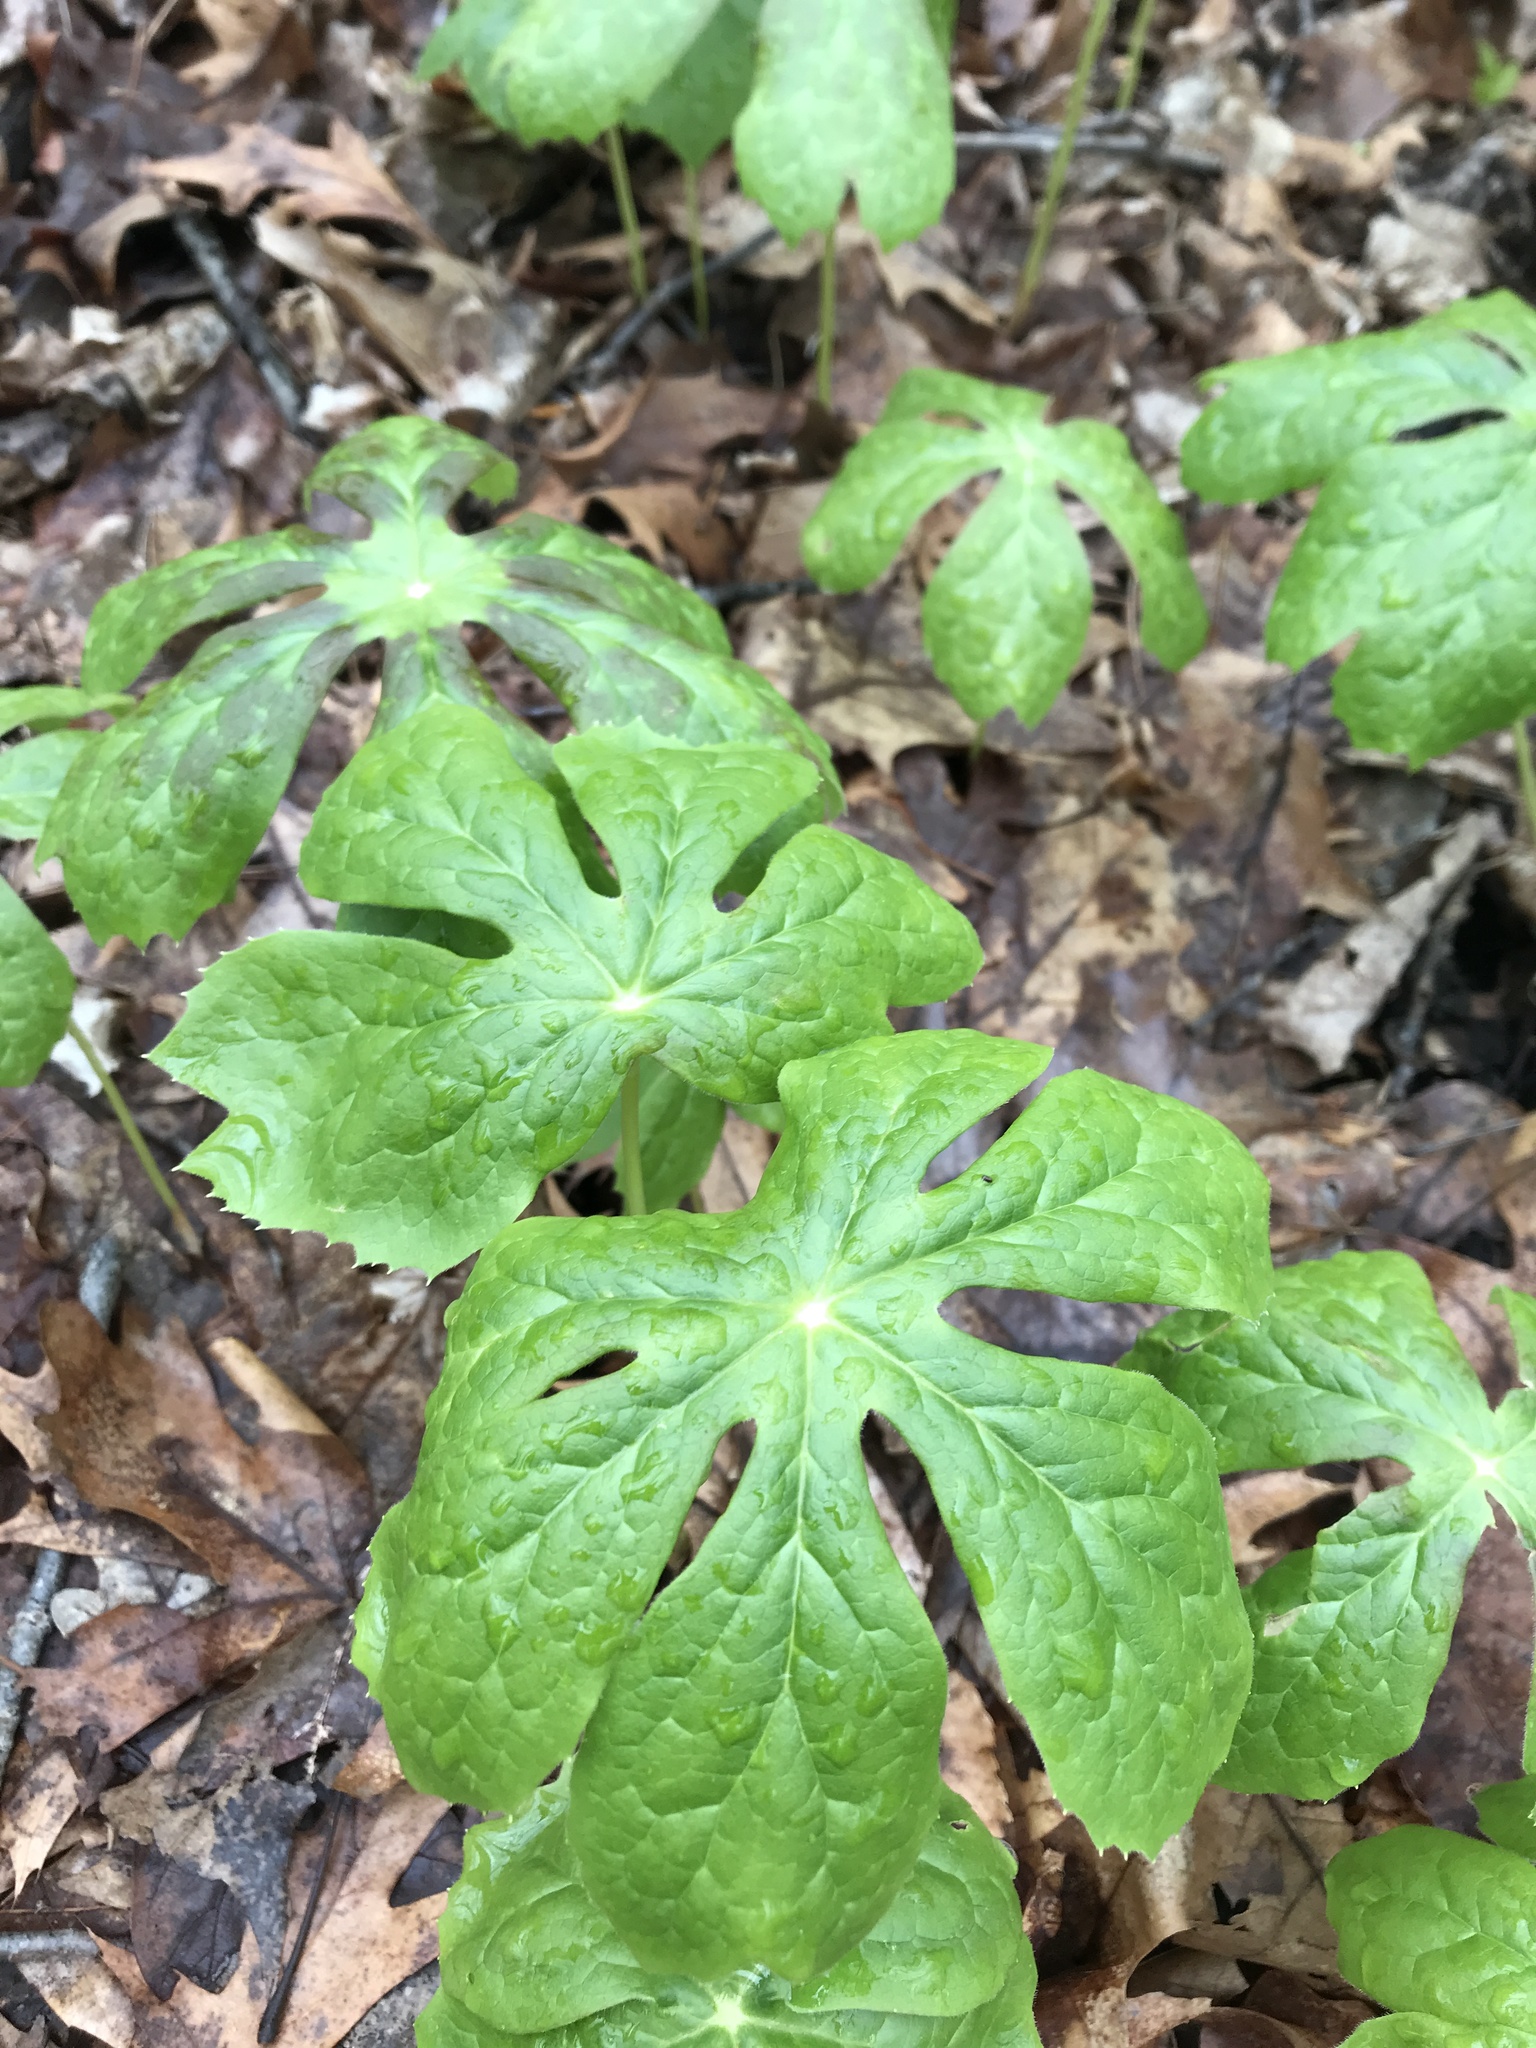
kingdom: Plantae
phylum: Tracheophyta
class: Magnoliopsida
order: Ranunculales
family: Berberidaceae
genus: Podophyllum
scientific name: Podophyllum peltatum
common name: Wild mandrake
